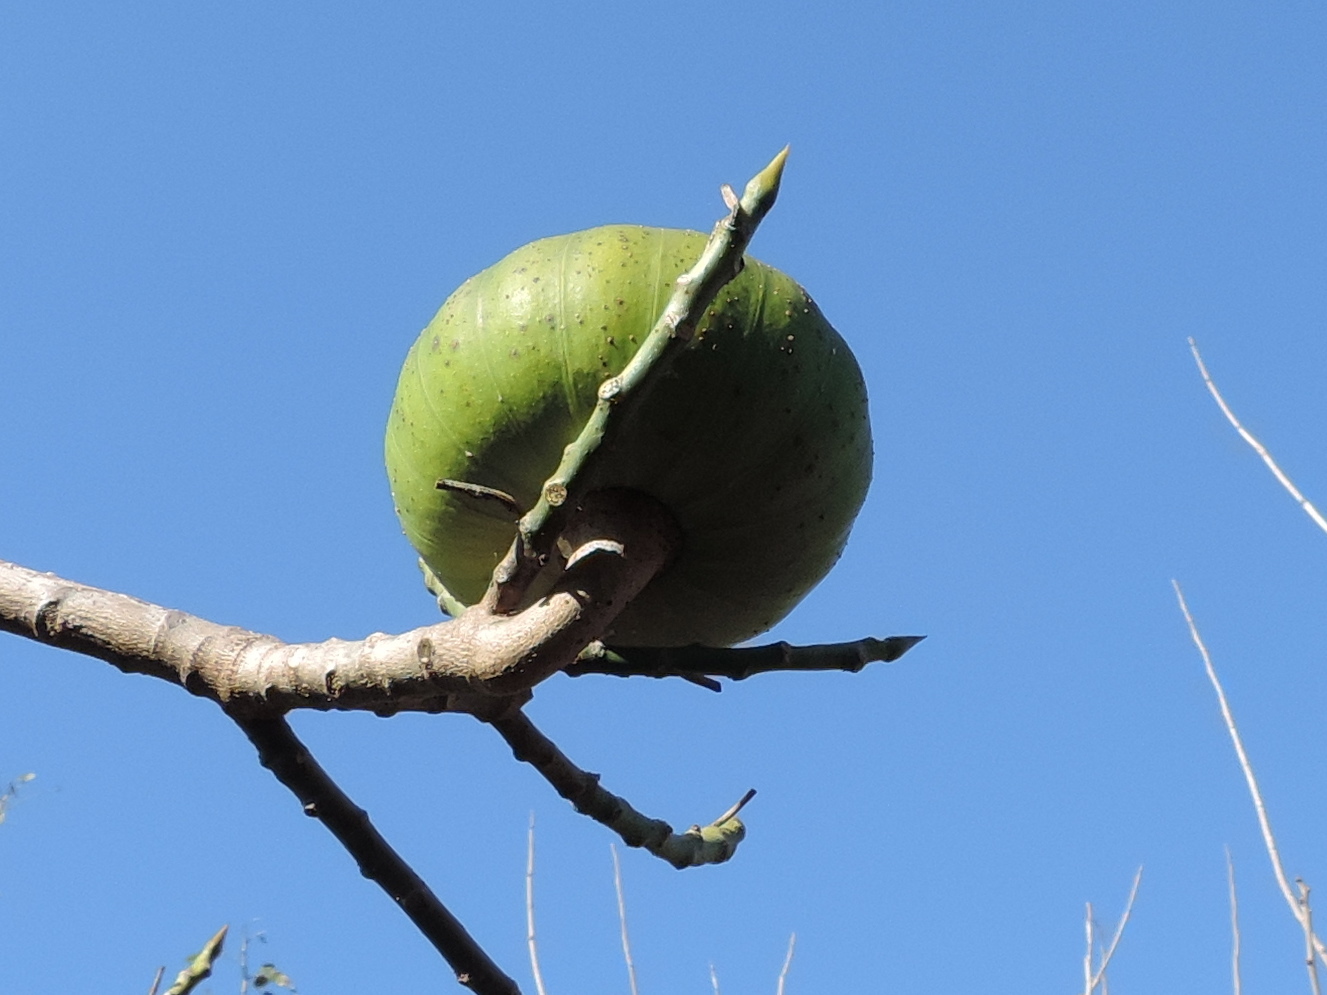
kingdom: Plantae
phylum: Tracheophyta
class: Magnoliopsida
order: Malpighiales
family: Euphorbiaceae
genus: Hura
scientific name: Hura polyandra
